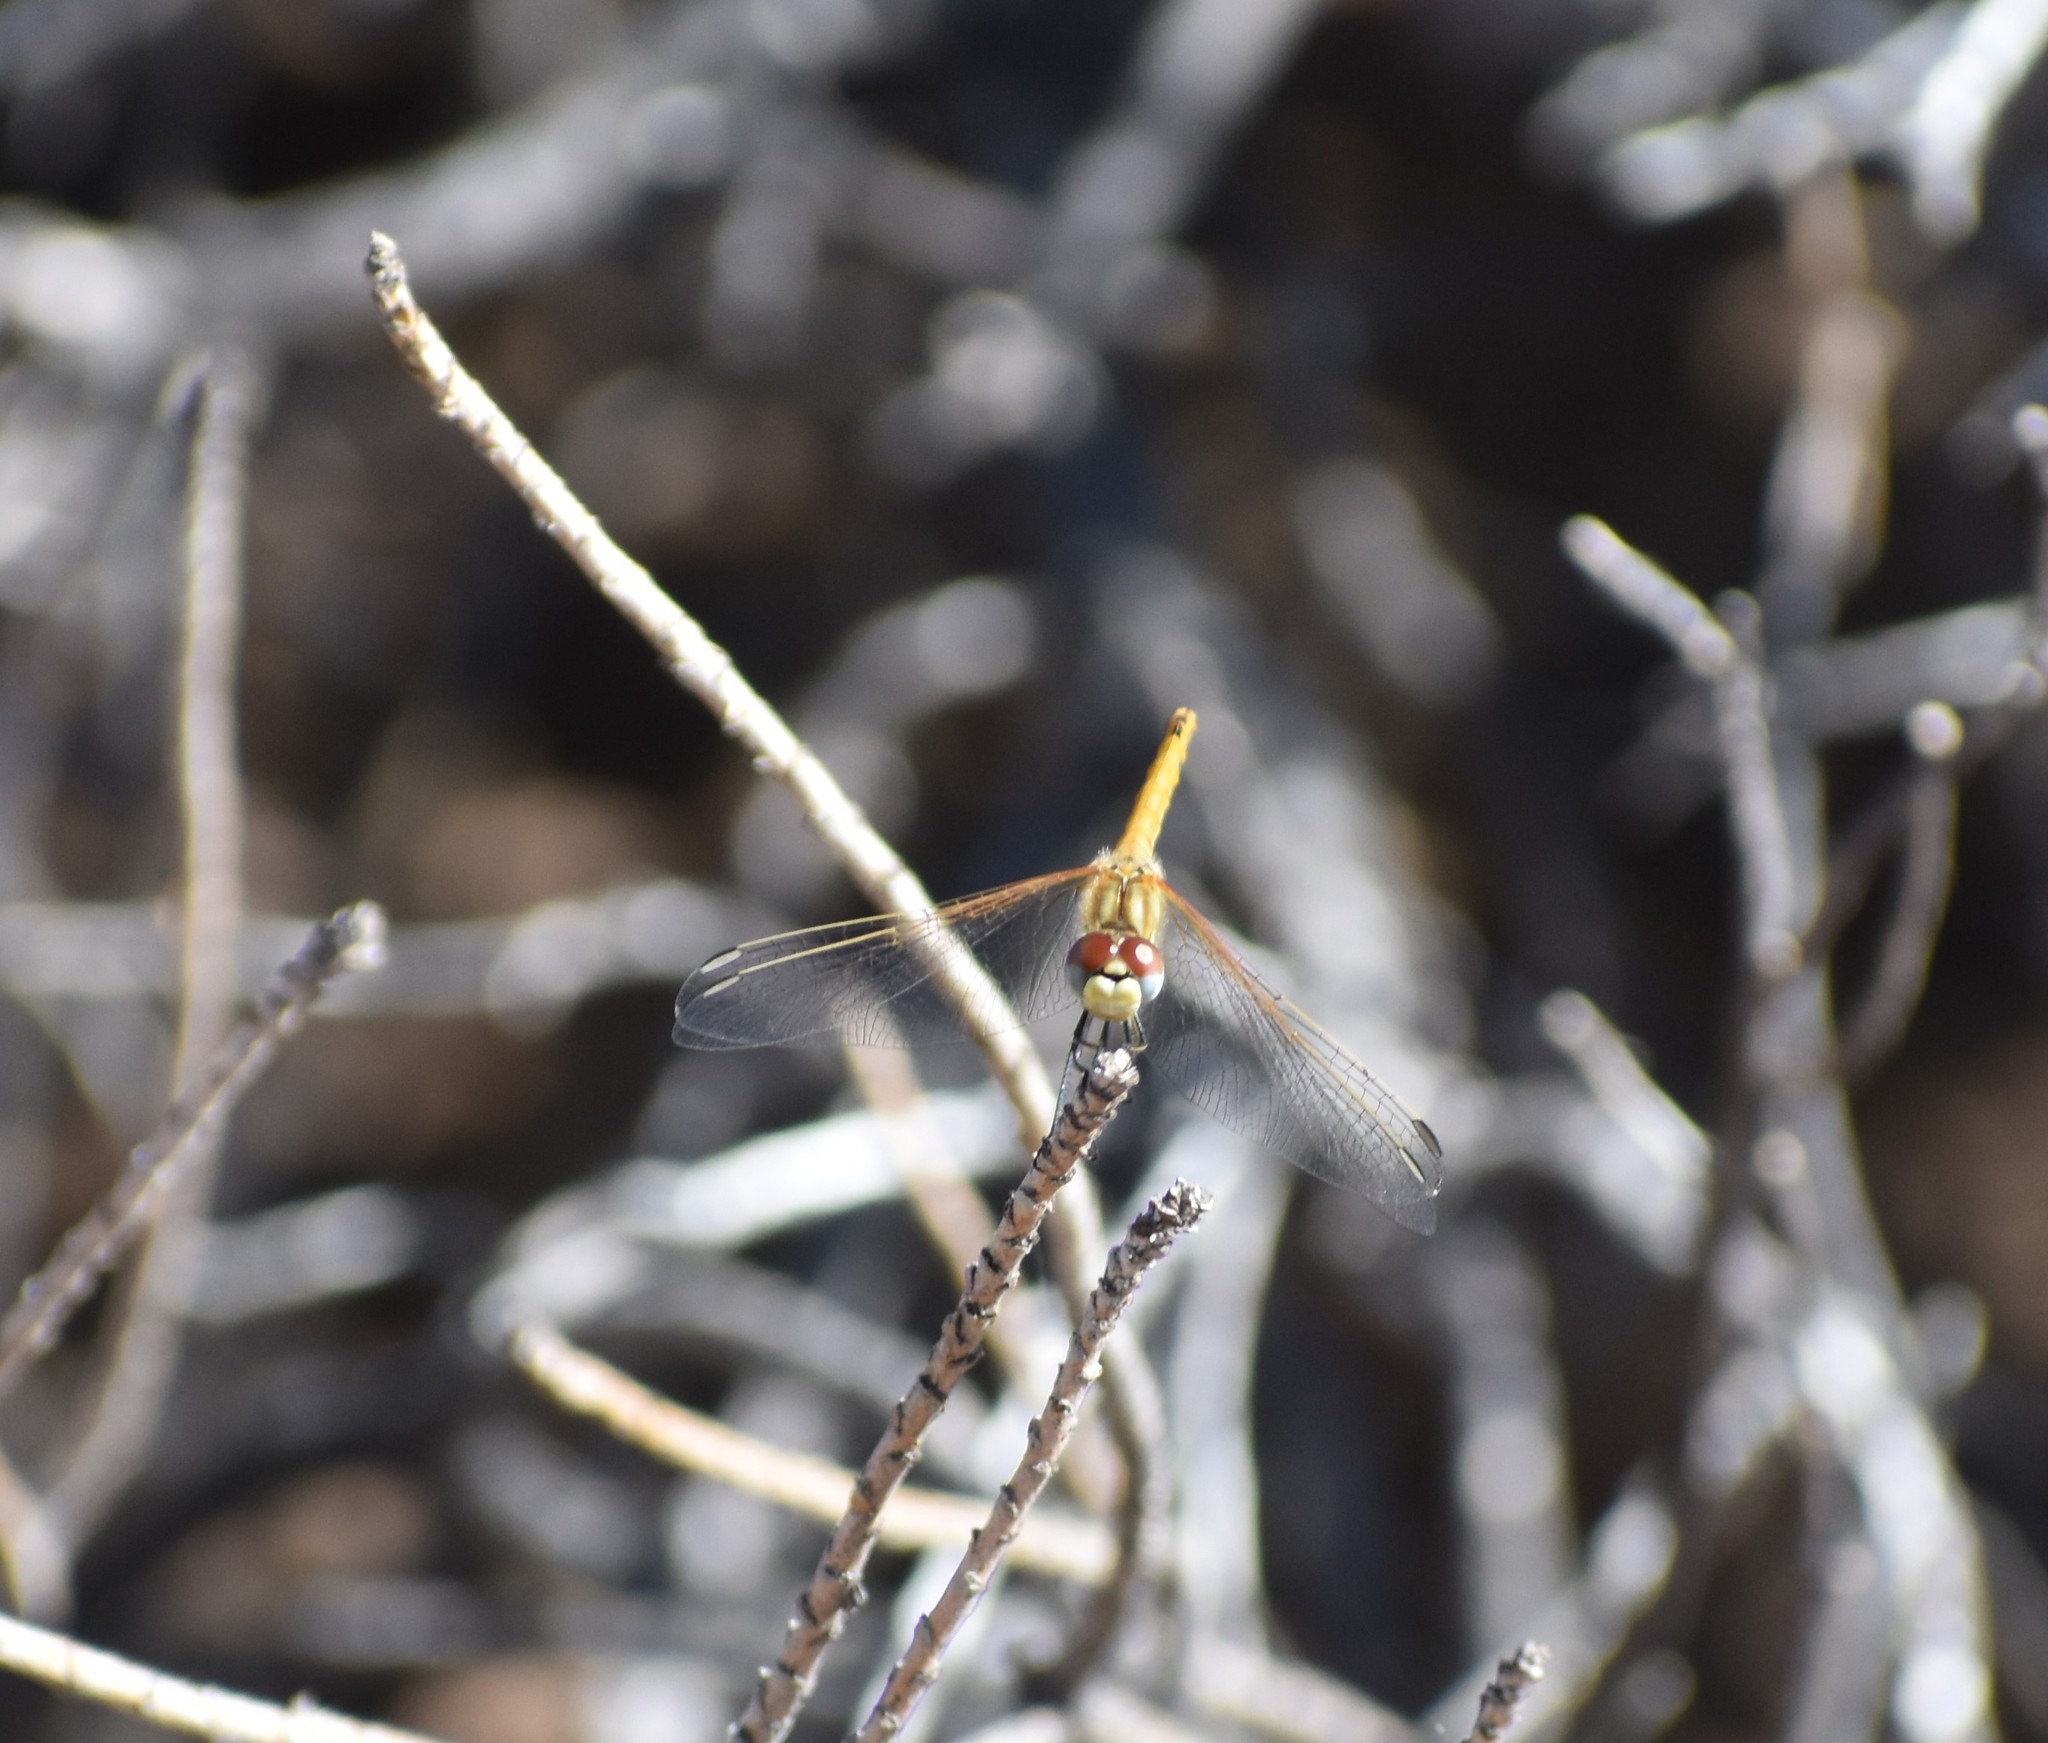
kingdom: Animalia
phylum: Arthropoda
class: Insecta
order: Odonata
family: Libellulidae
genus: Sympetrum
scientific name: Sympetrum fonscolombii
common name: Red-veined darter
